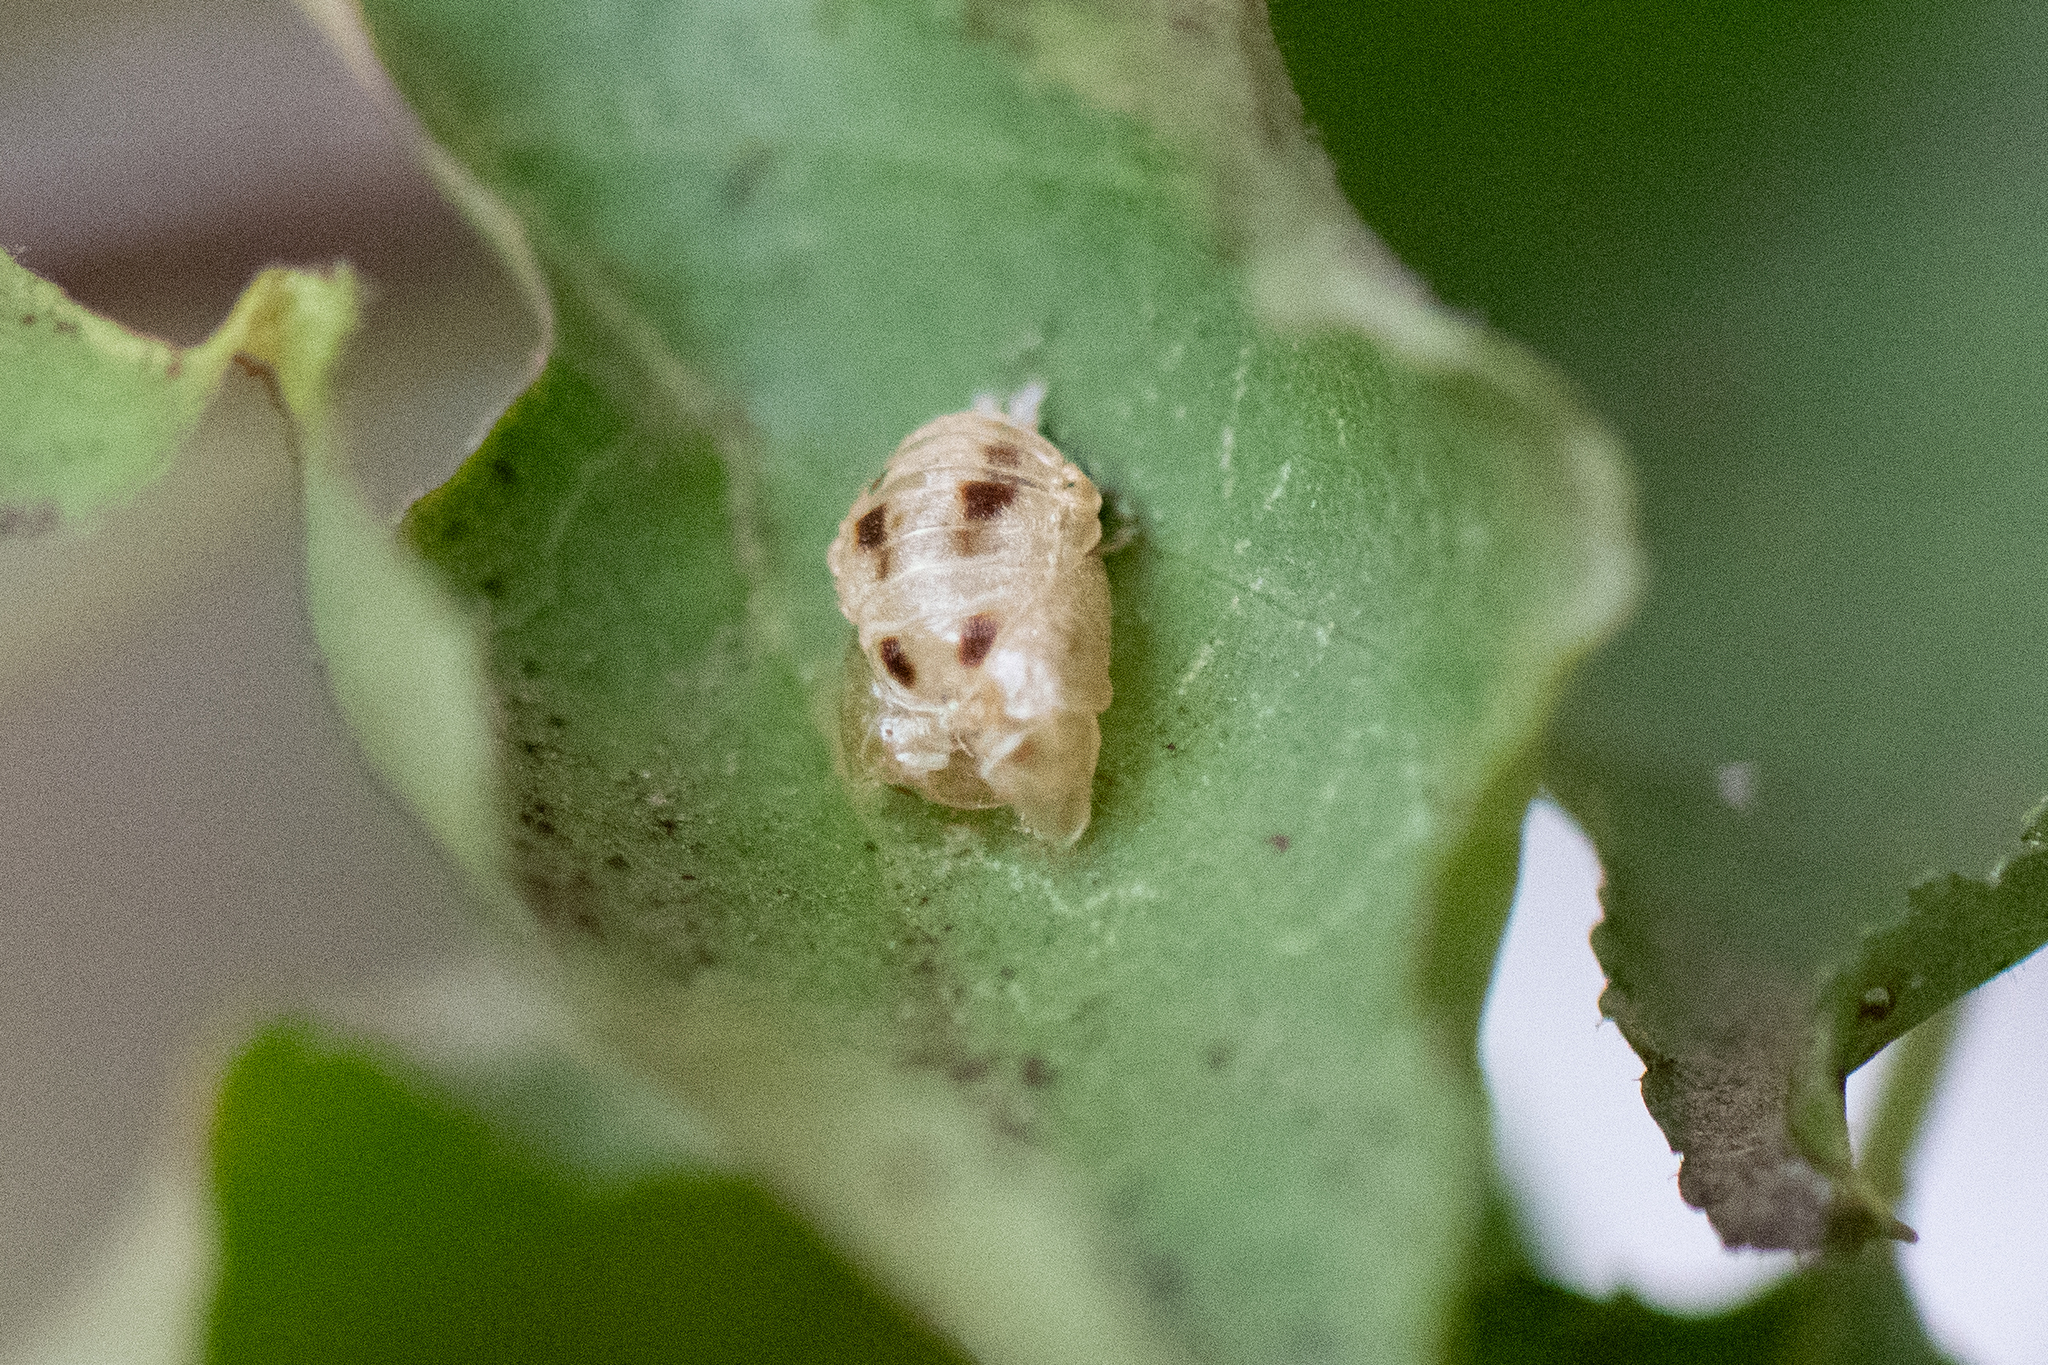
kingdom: Animalia
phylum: Arthropoda
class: Insecta
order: Coleoptera
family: Coccinellidae
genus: Harmonia
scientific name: Harmonia axyridis
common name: Harlequin ladybird
